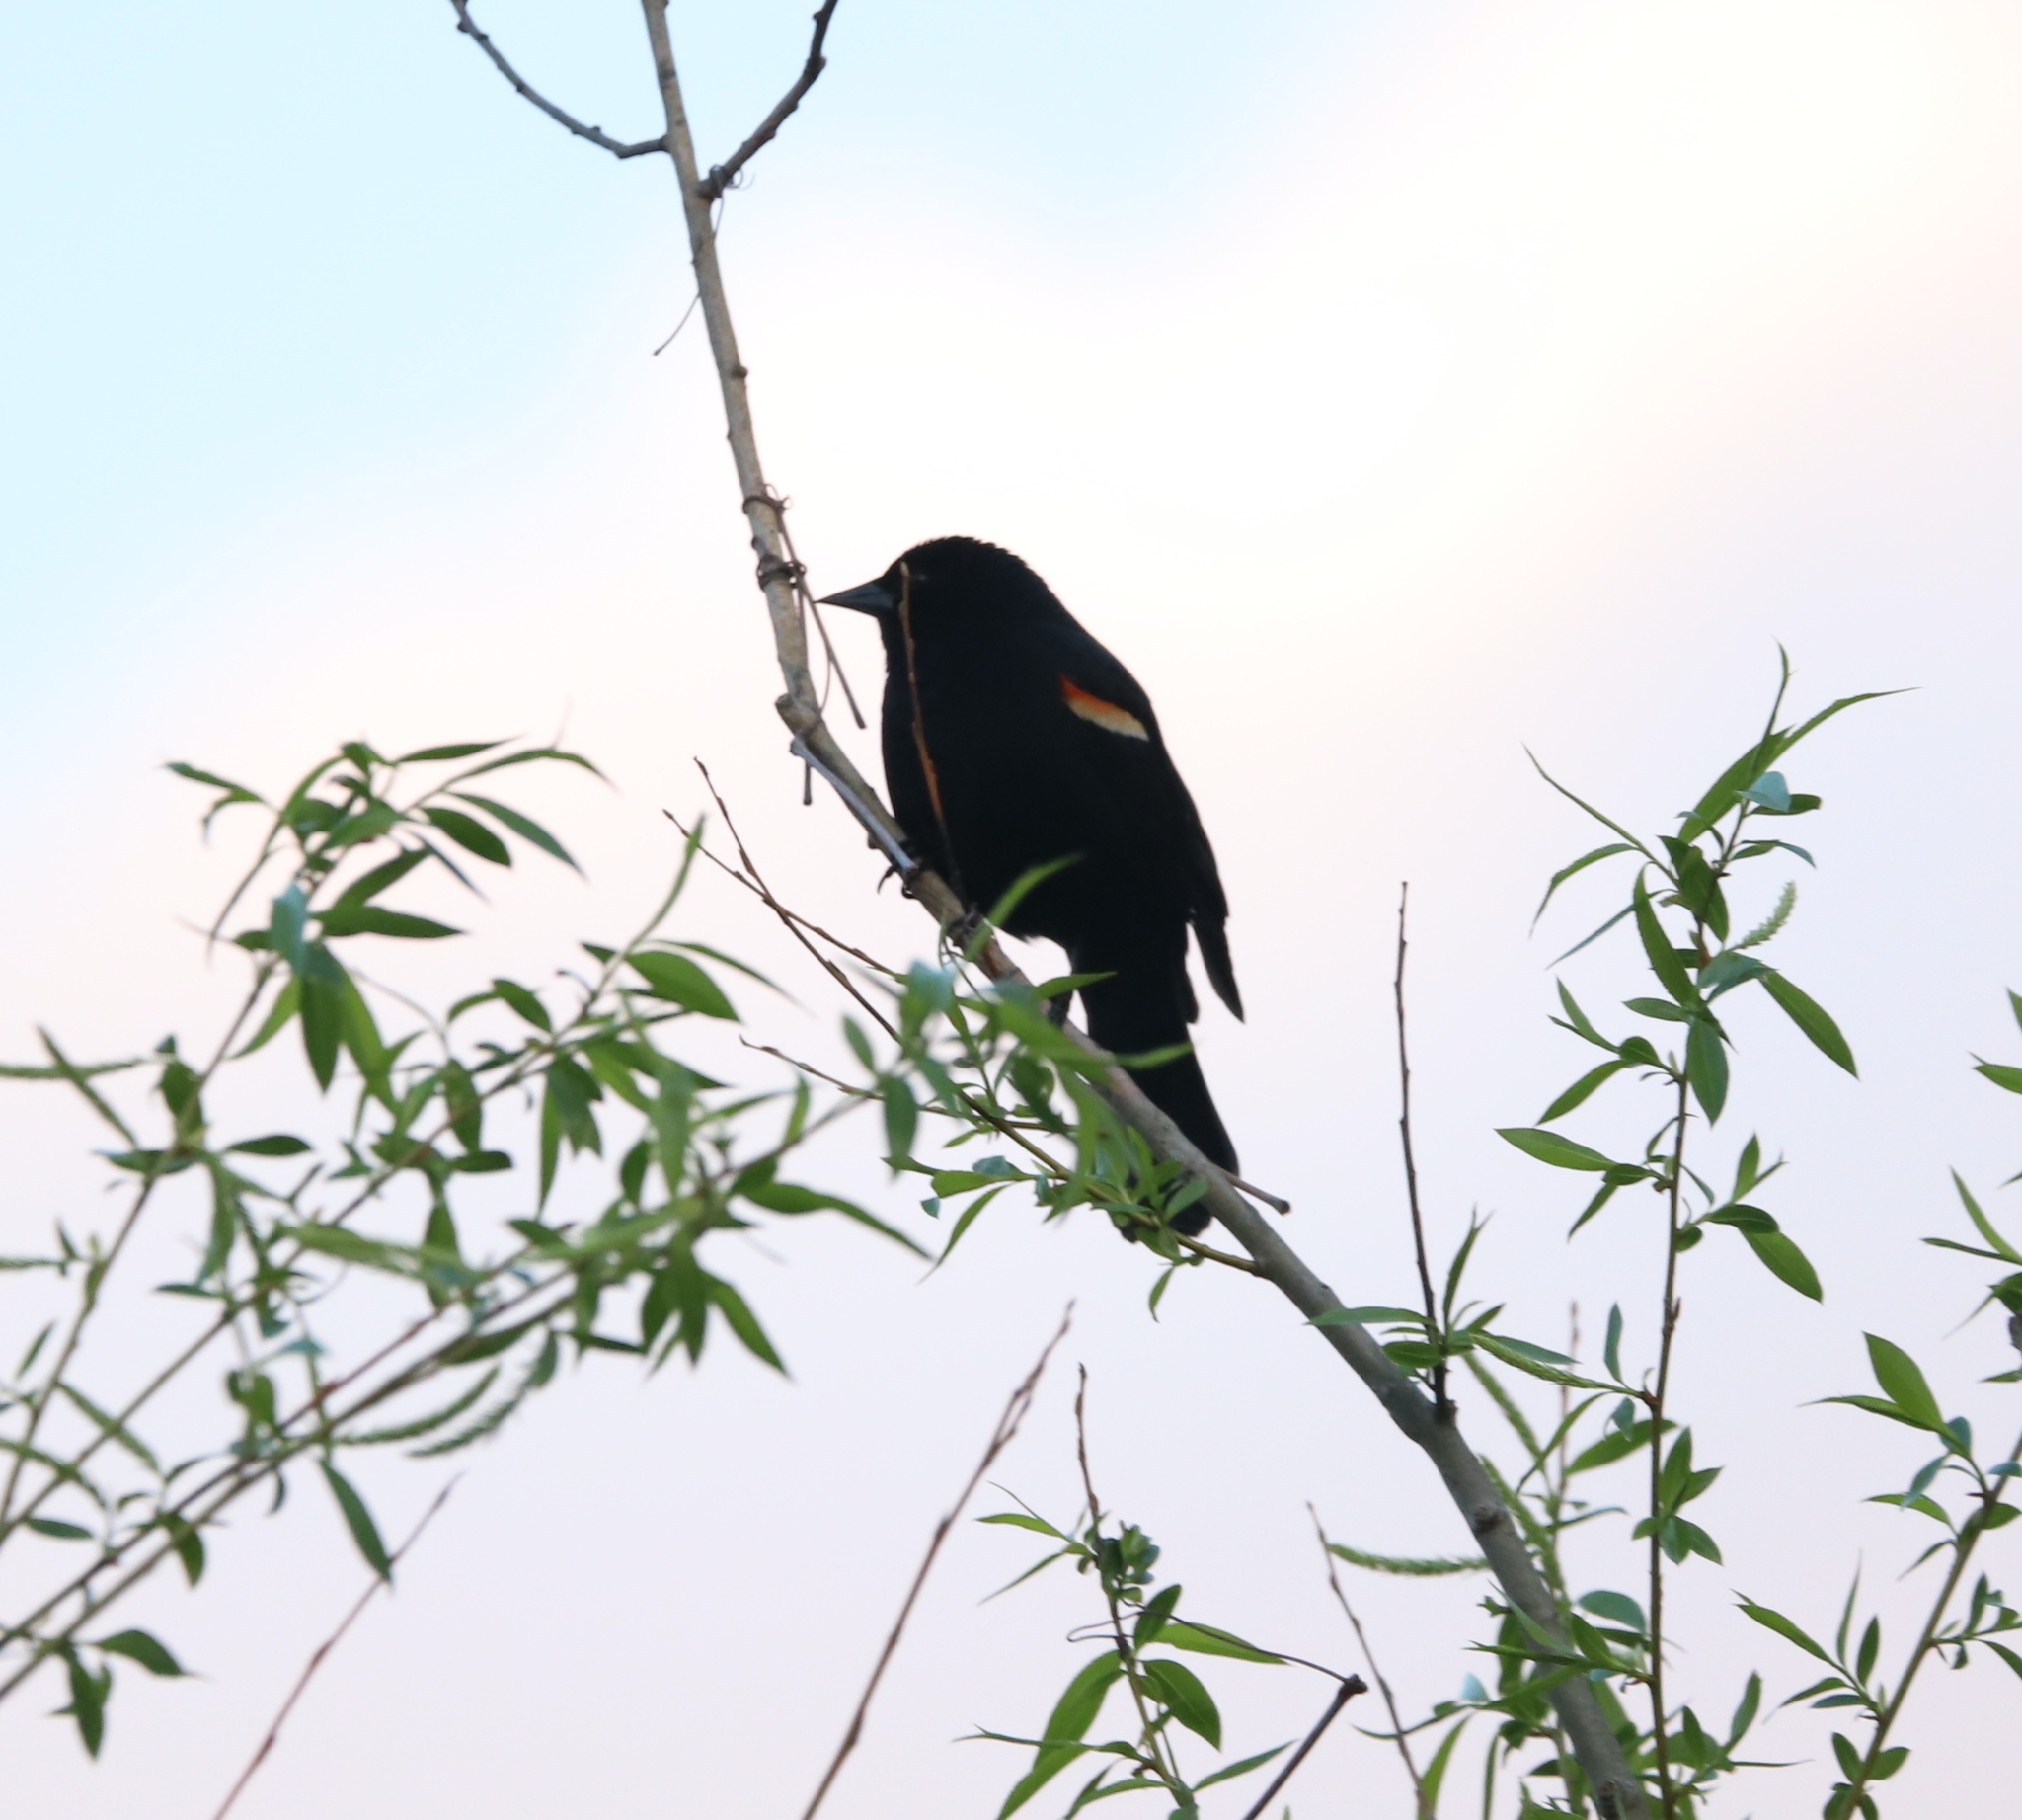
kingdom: Animalia
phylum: Chordata
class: Aves
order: Passeriformes
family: Icteridae
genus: Agelaius
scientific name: Agelaius phoeniceus
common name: Red-winged blackbird
